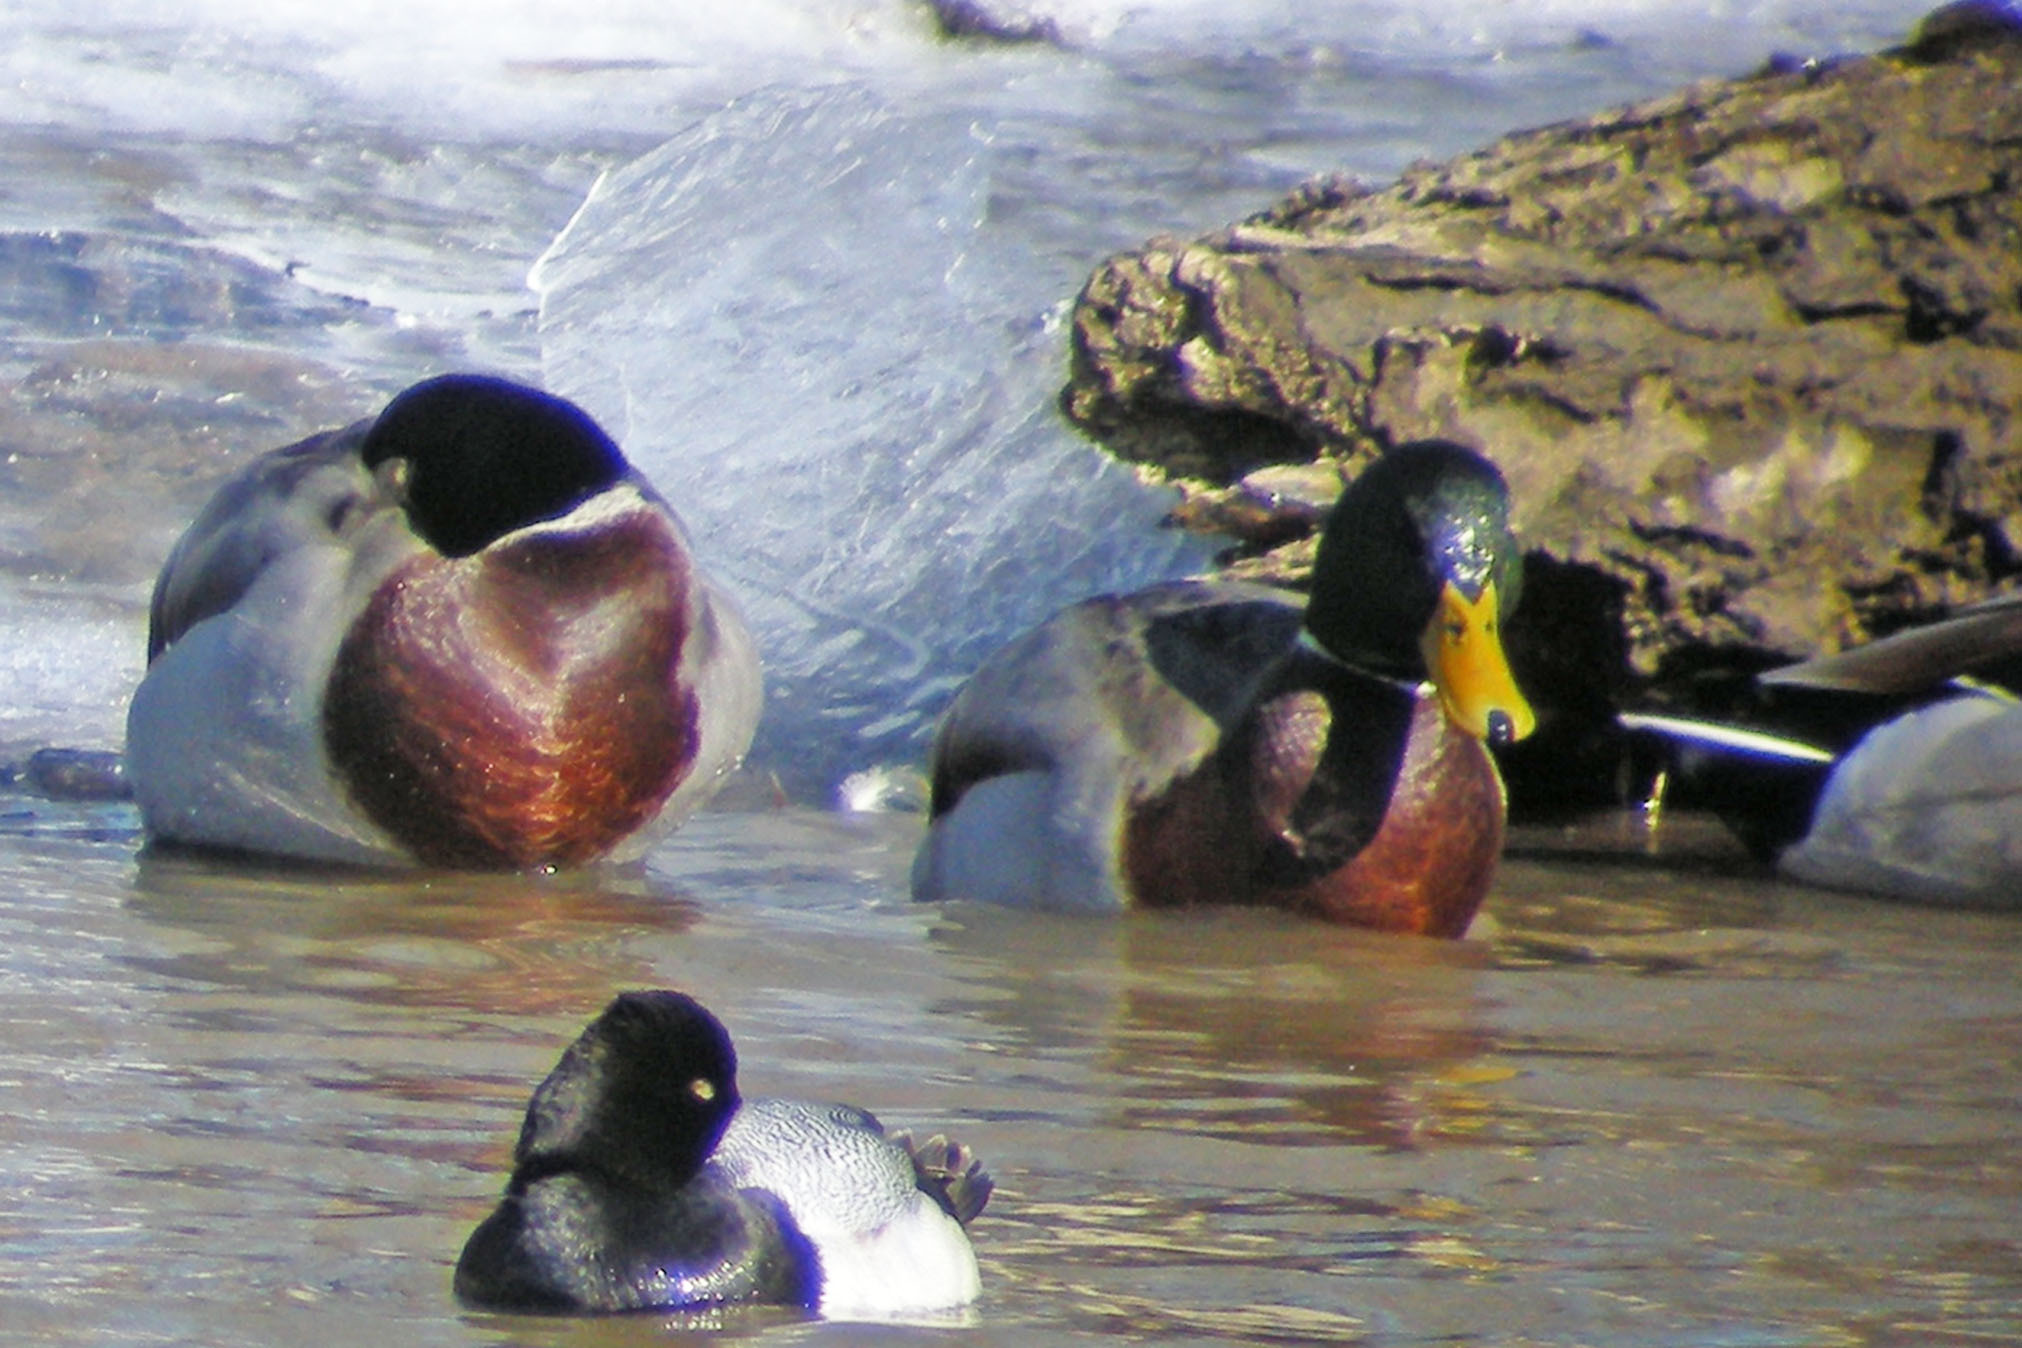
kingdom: Animalia
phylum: Chordata
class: Aves
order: Anseriformes
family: Anatidae
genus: Anas
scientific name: Anas platyrhynchos
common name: Mallard
